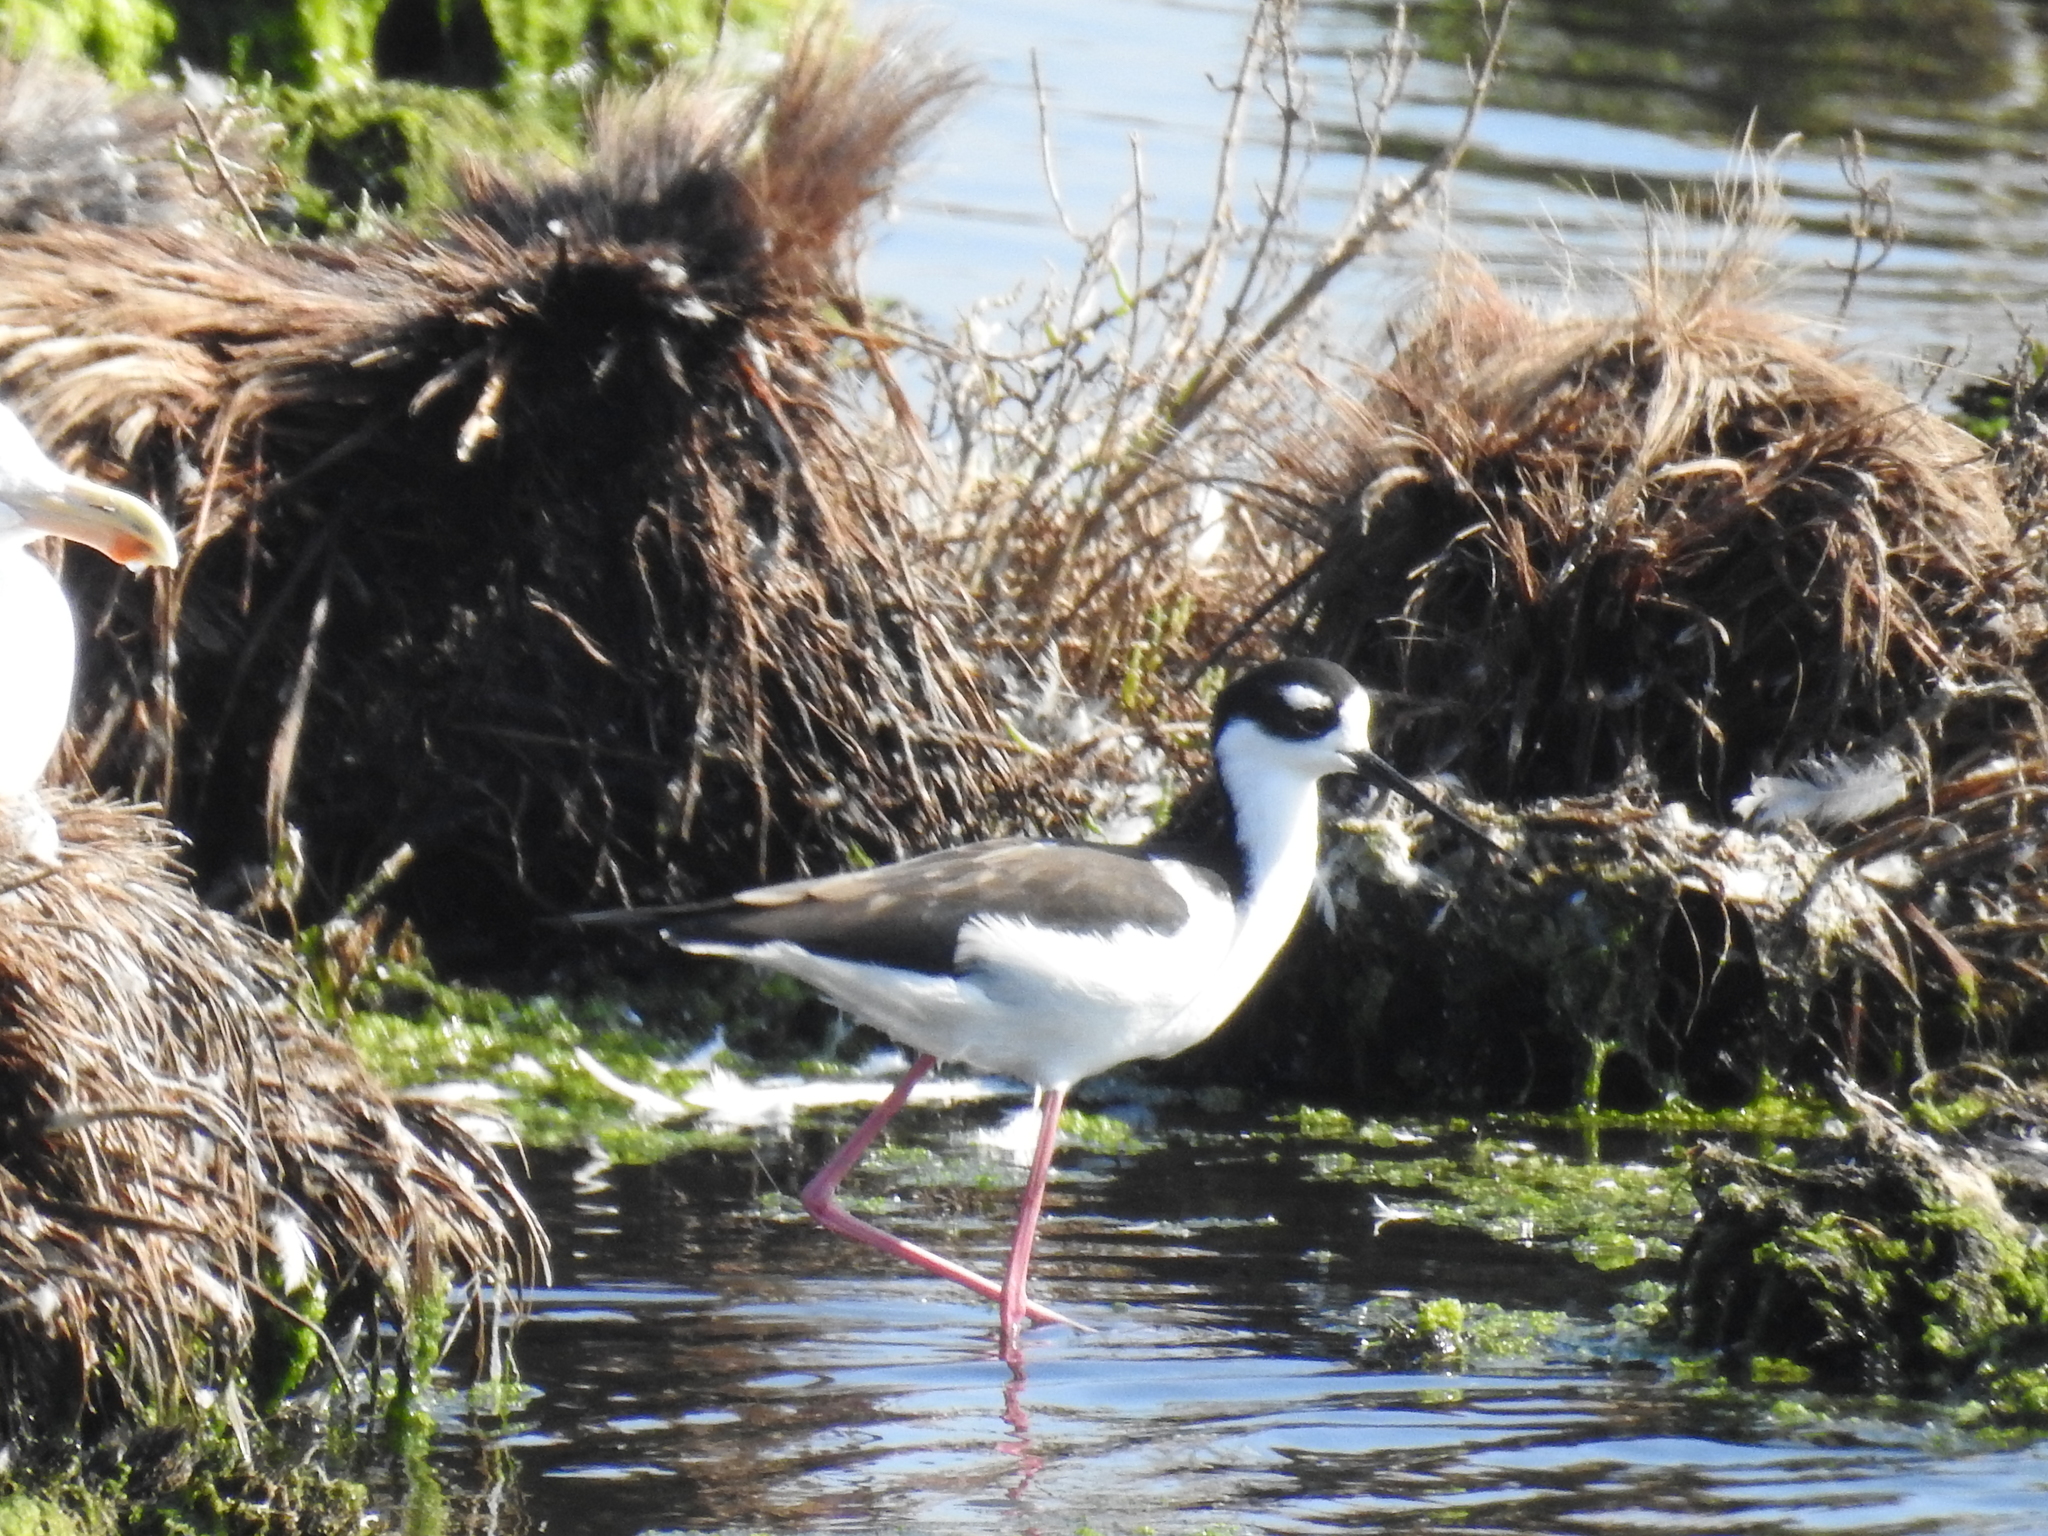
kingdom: Animalia
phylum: Chordata
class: Aves
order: Charadriiformes
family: Recurvirostridae
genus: Himantopus
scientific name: Himantopus mexicanus
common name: Black-necked stilt
